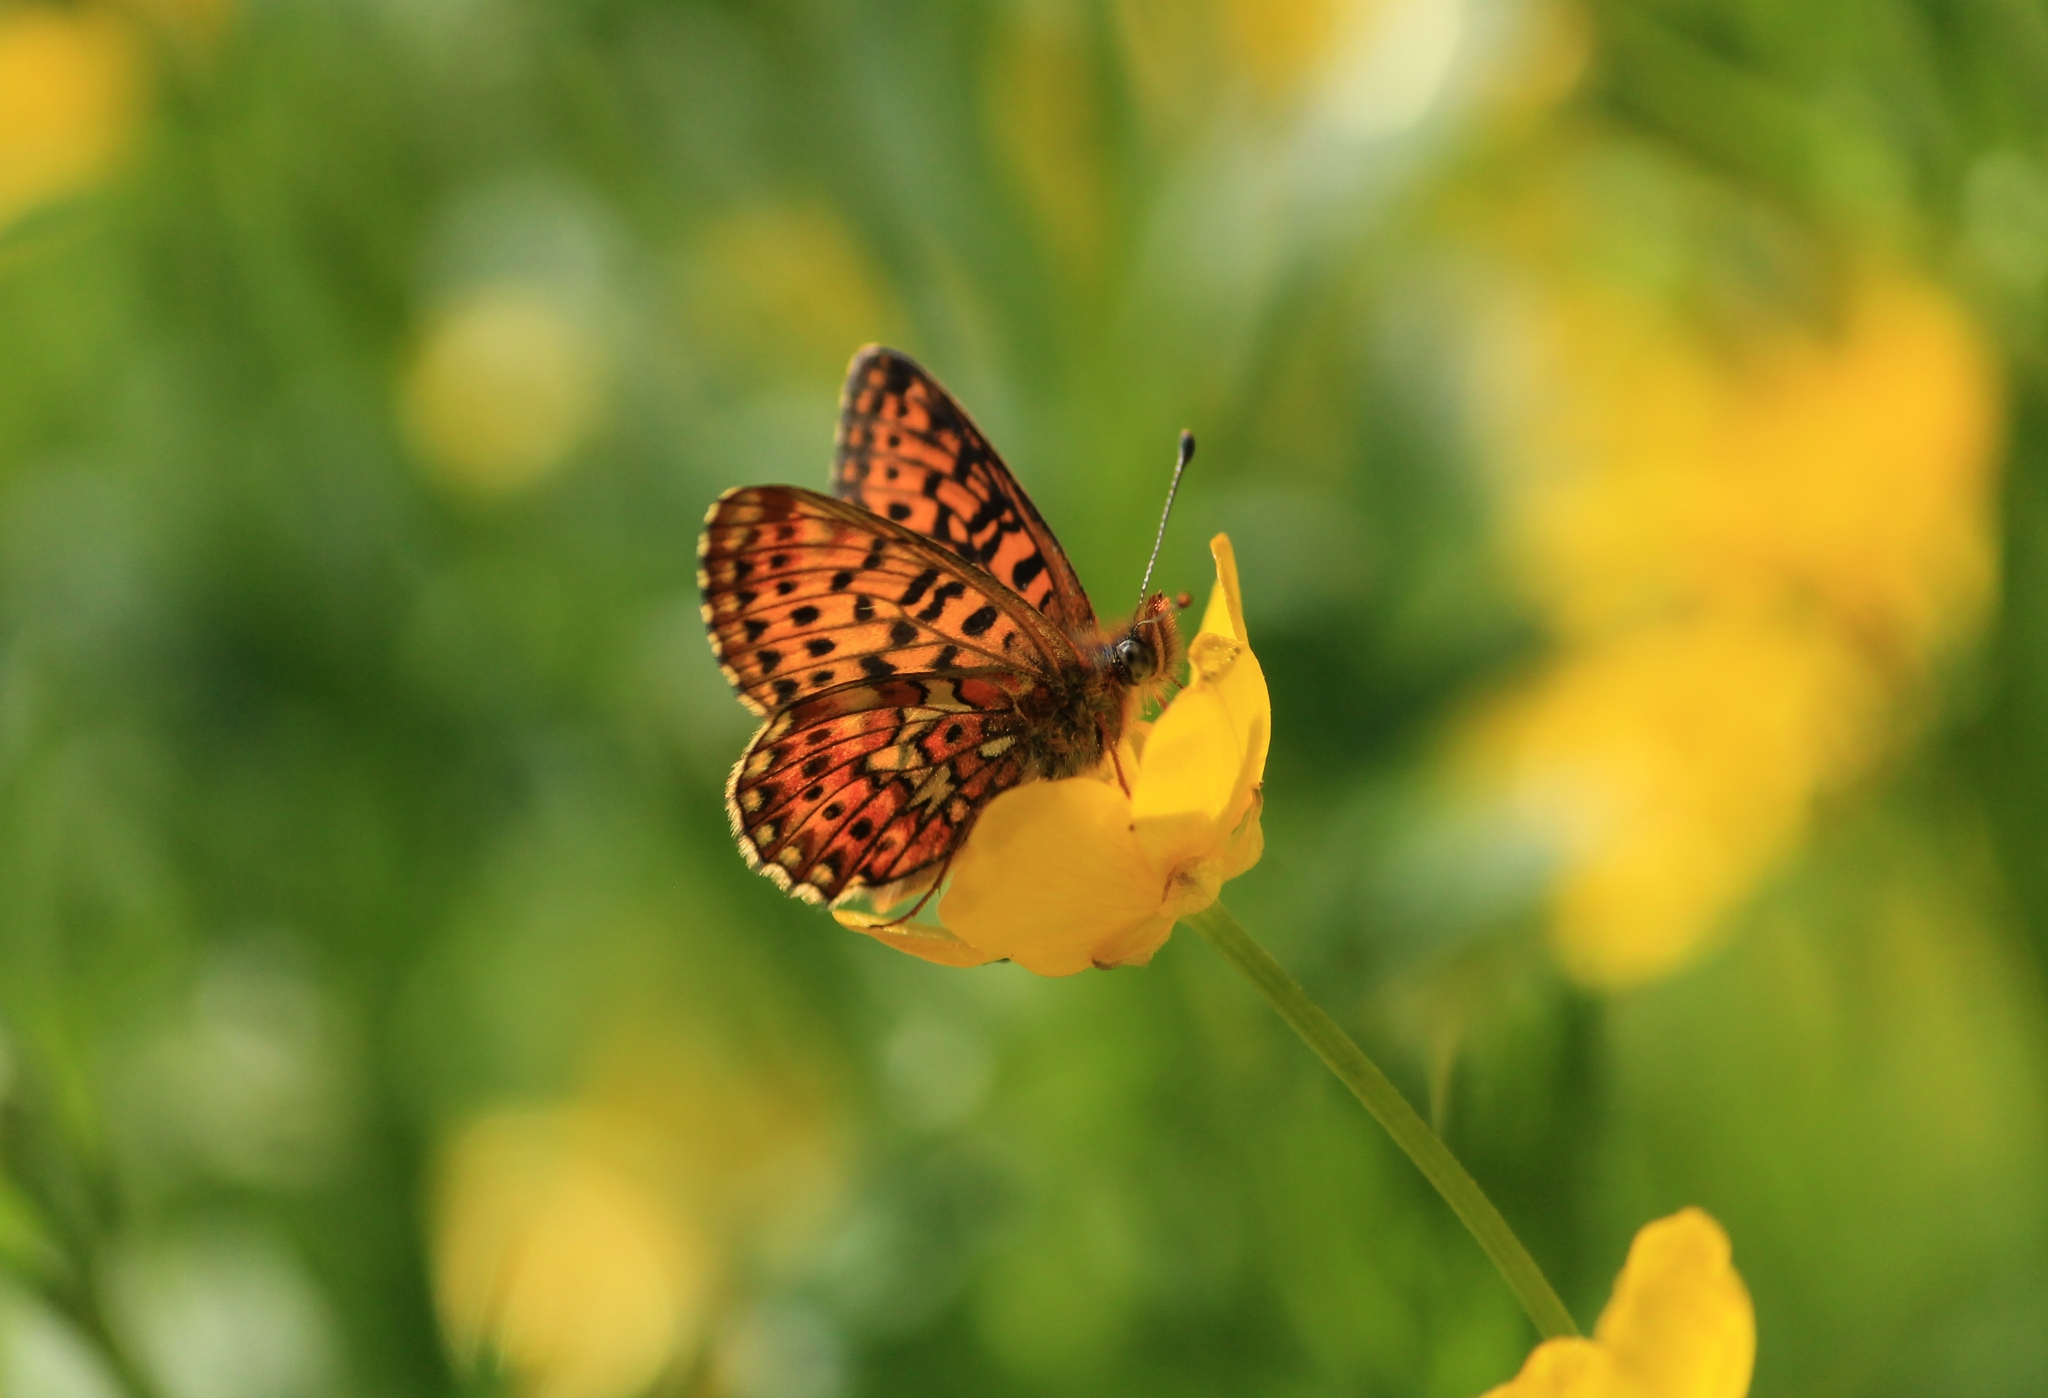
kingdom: Animalia
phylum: Arthropoda
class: Insecta
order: Lepidoptera
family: Nymphalidae
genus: Clossiana
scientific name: Clossiana euphrosyne
